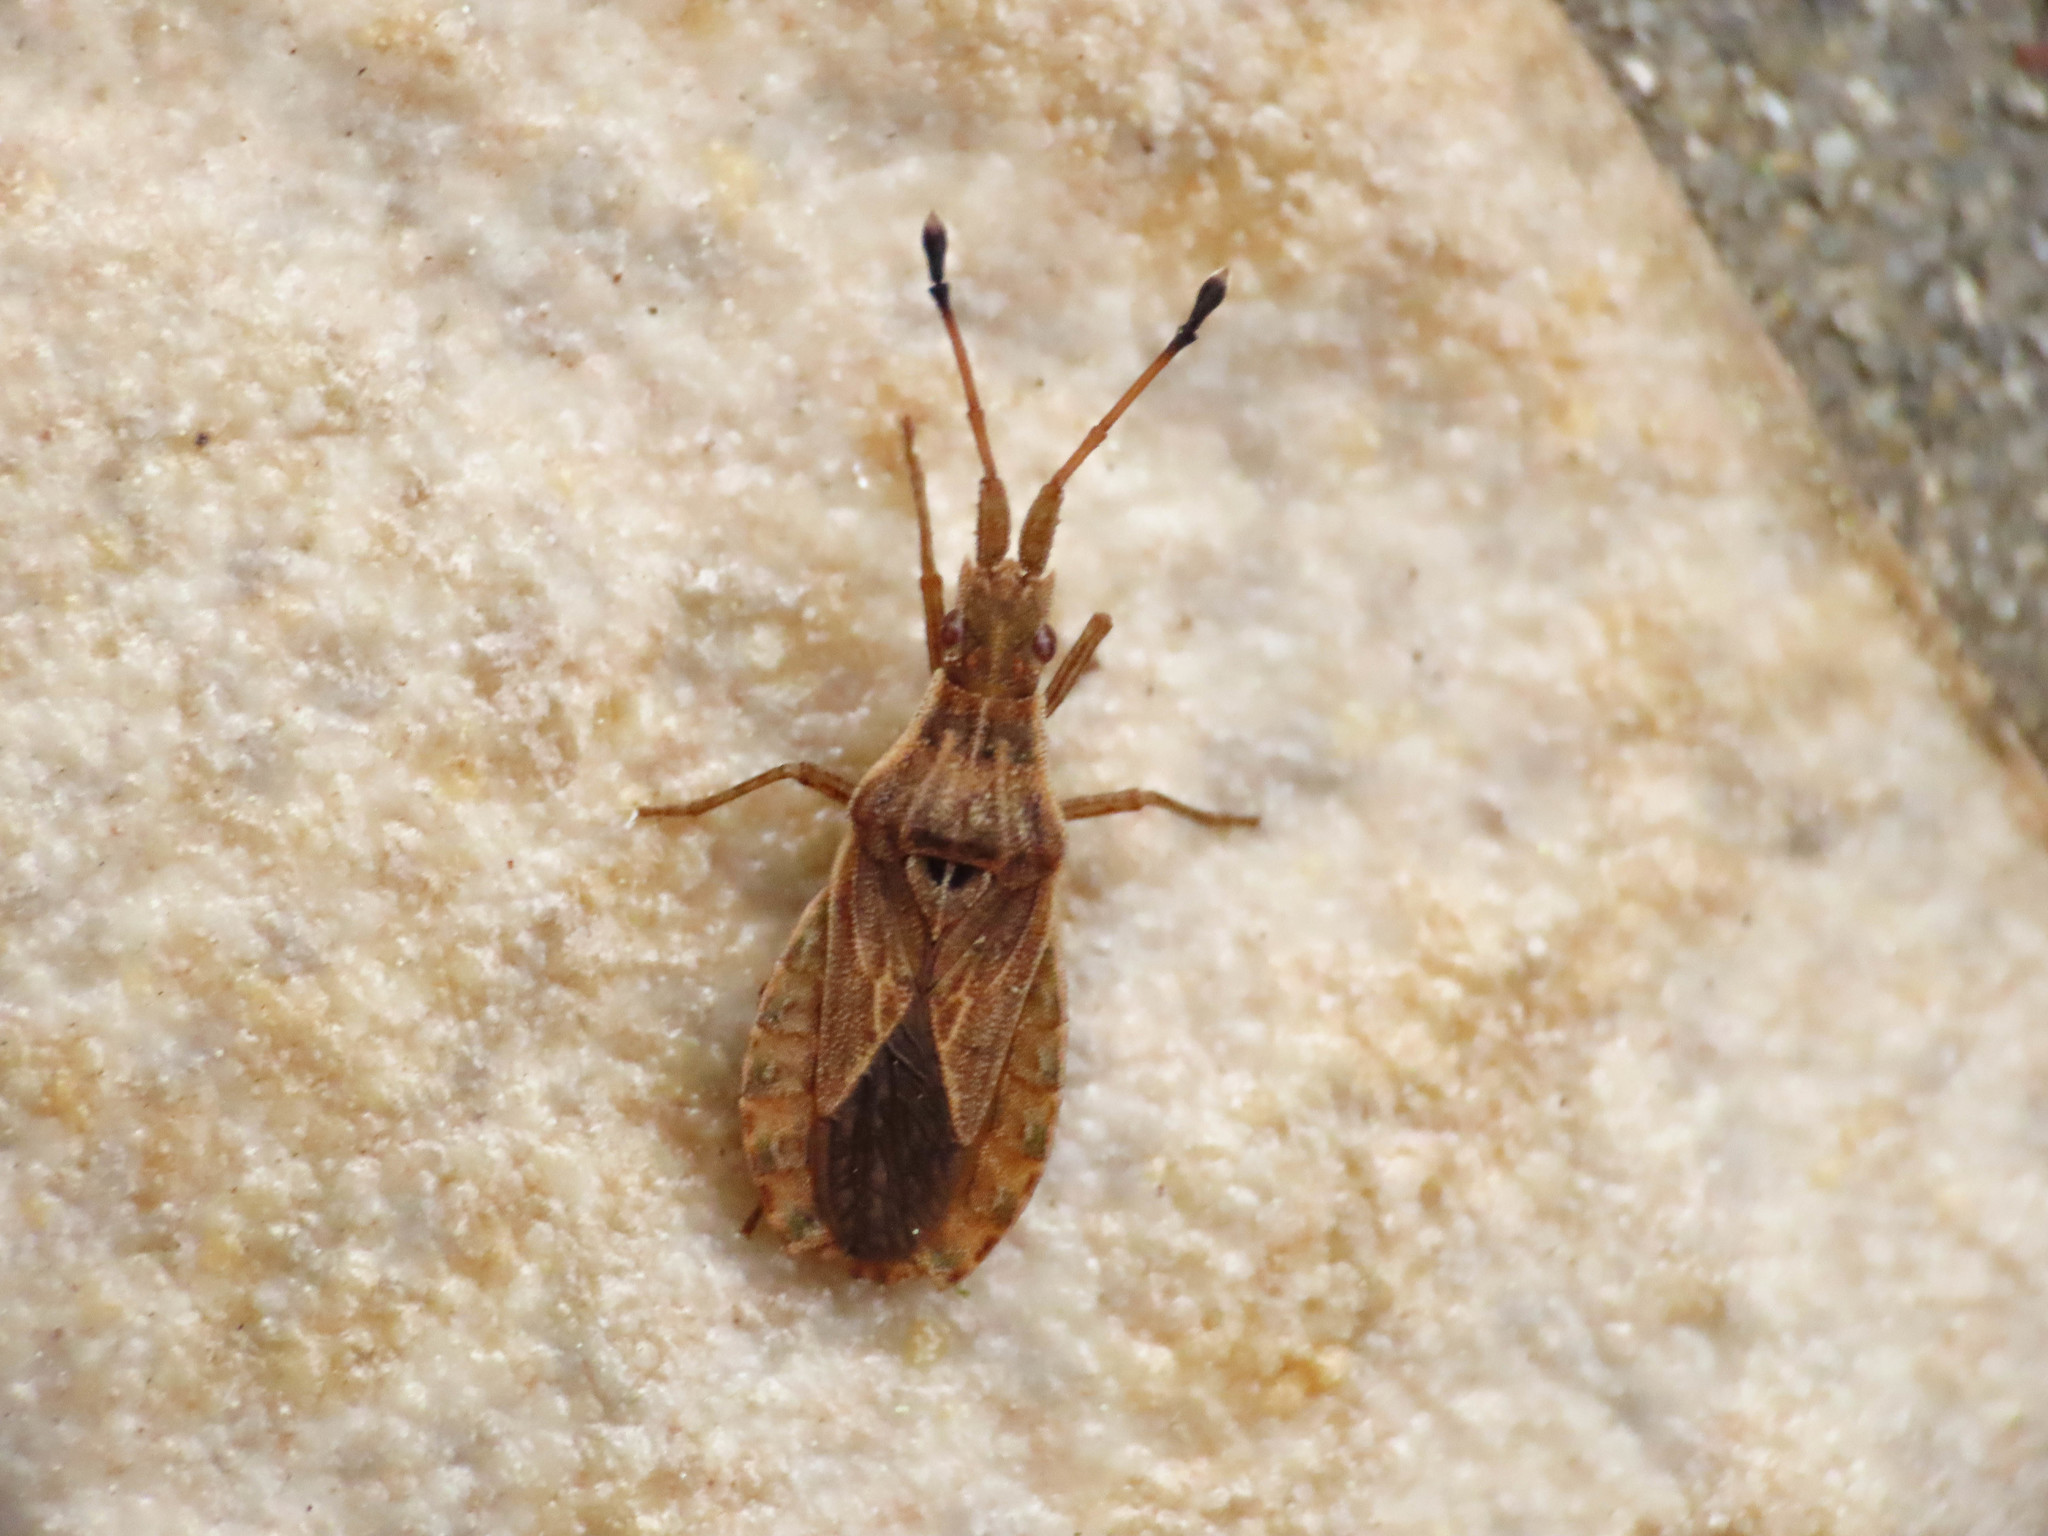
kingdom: Animalia
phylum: Arthropoda
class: Insecta
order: Hemiptera
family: Coreidae
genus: Spathocera
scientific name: Spathocera lobata
